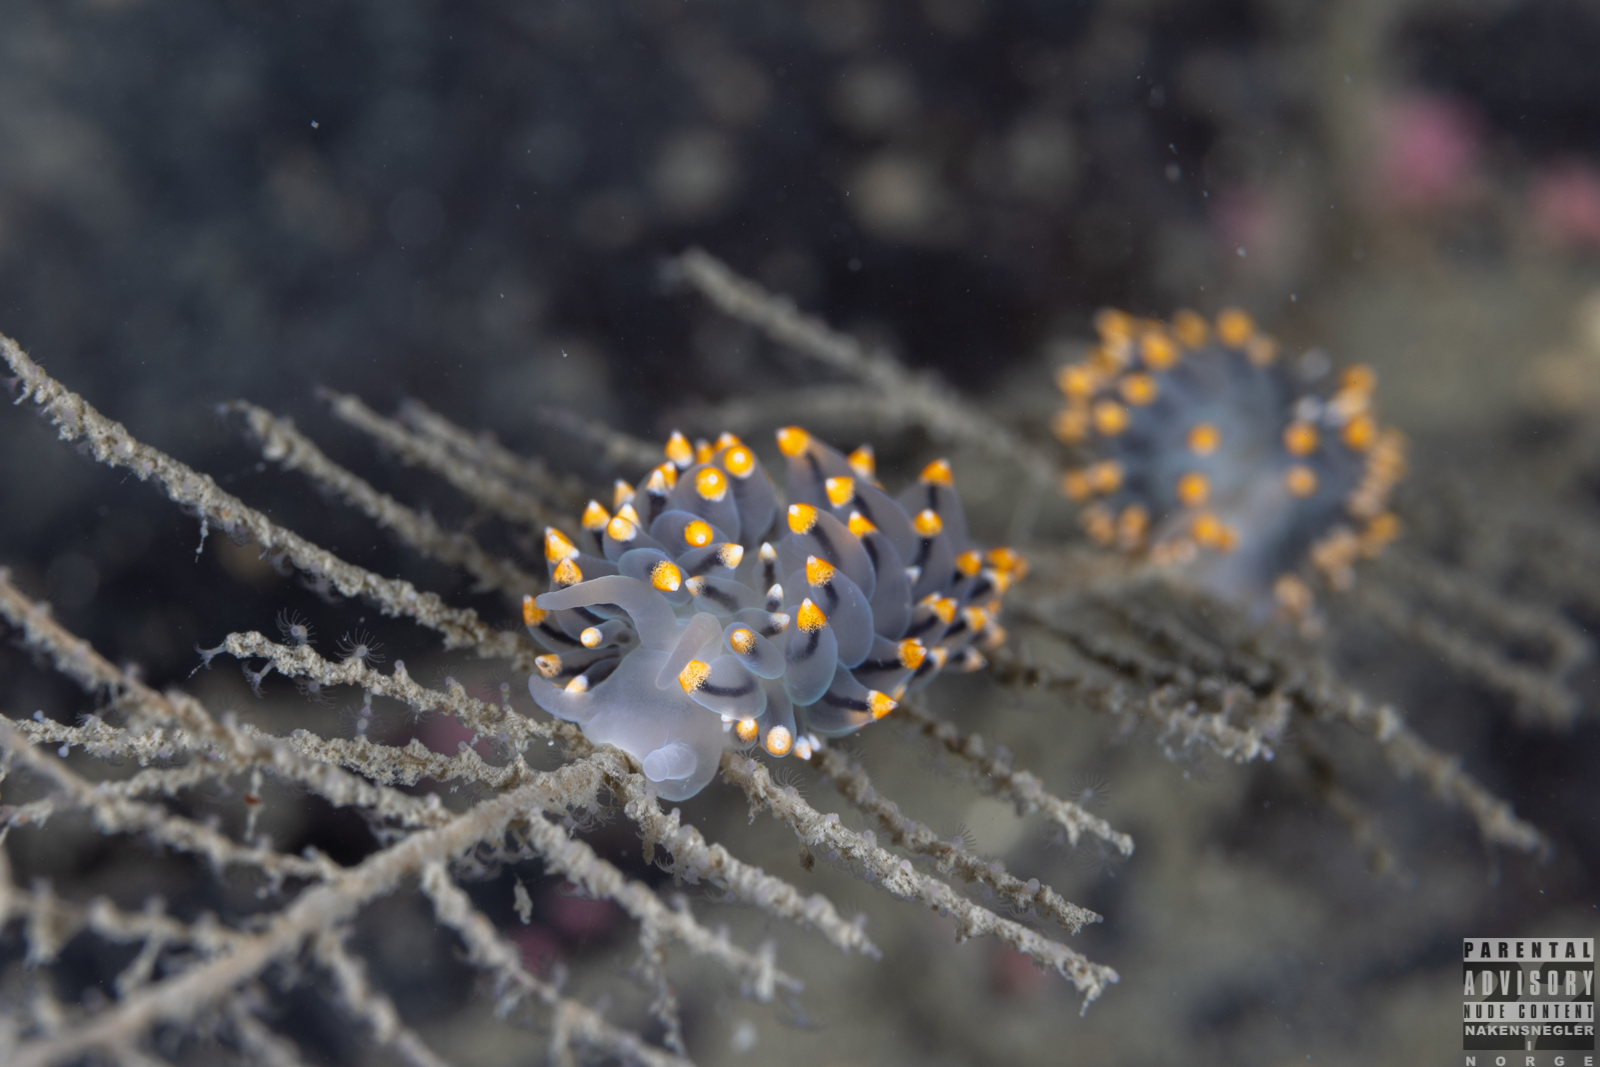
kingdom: Animalia
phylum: Mollusca
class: Gastropoda
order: Nudibranchia
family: Eubranchidae
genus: Eubranchus
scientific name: Eubranchus tricolor
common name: Painted balloon aeolis
